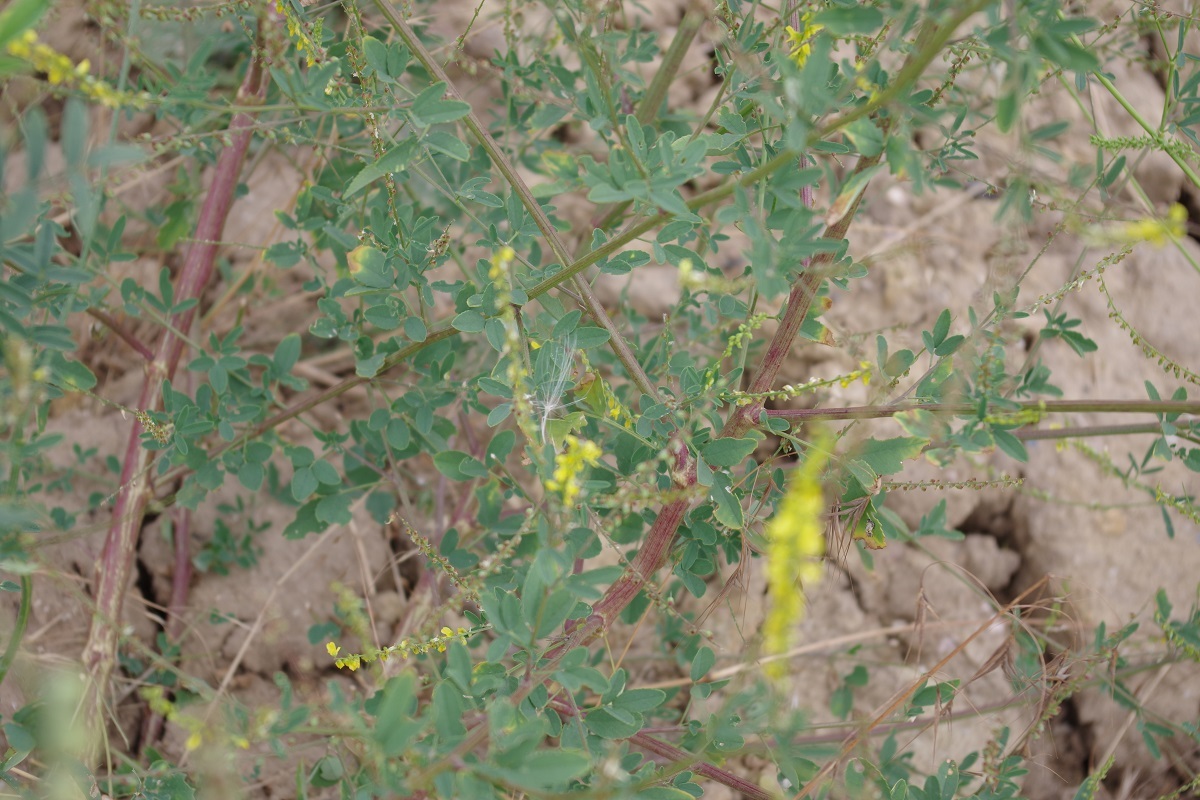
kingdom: Plantae
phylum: Tracheophyta
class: Magnoliopsida
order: Fabales
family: Fabaceae
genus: Melilotus
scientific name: Melilotus officinalis
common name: Sweetclover
